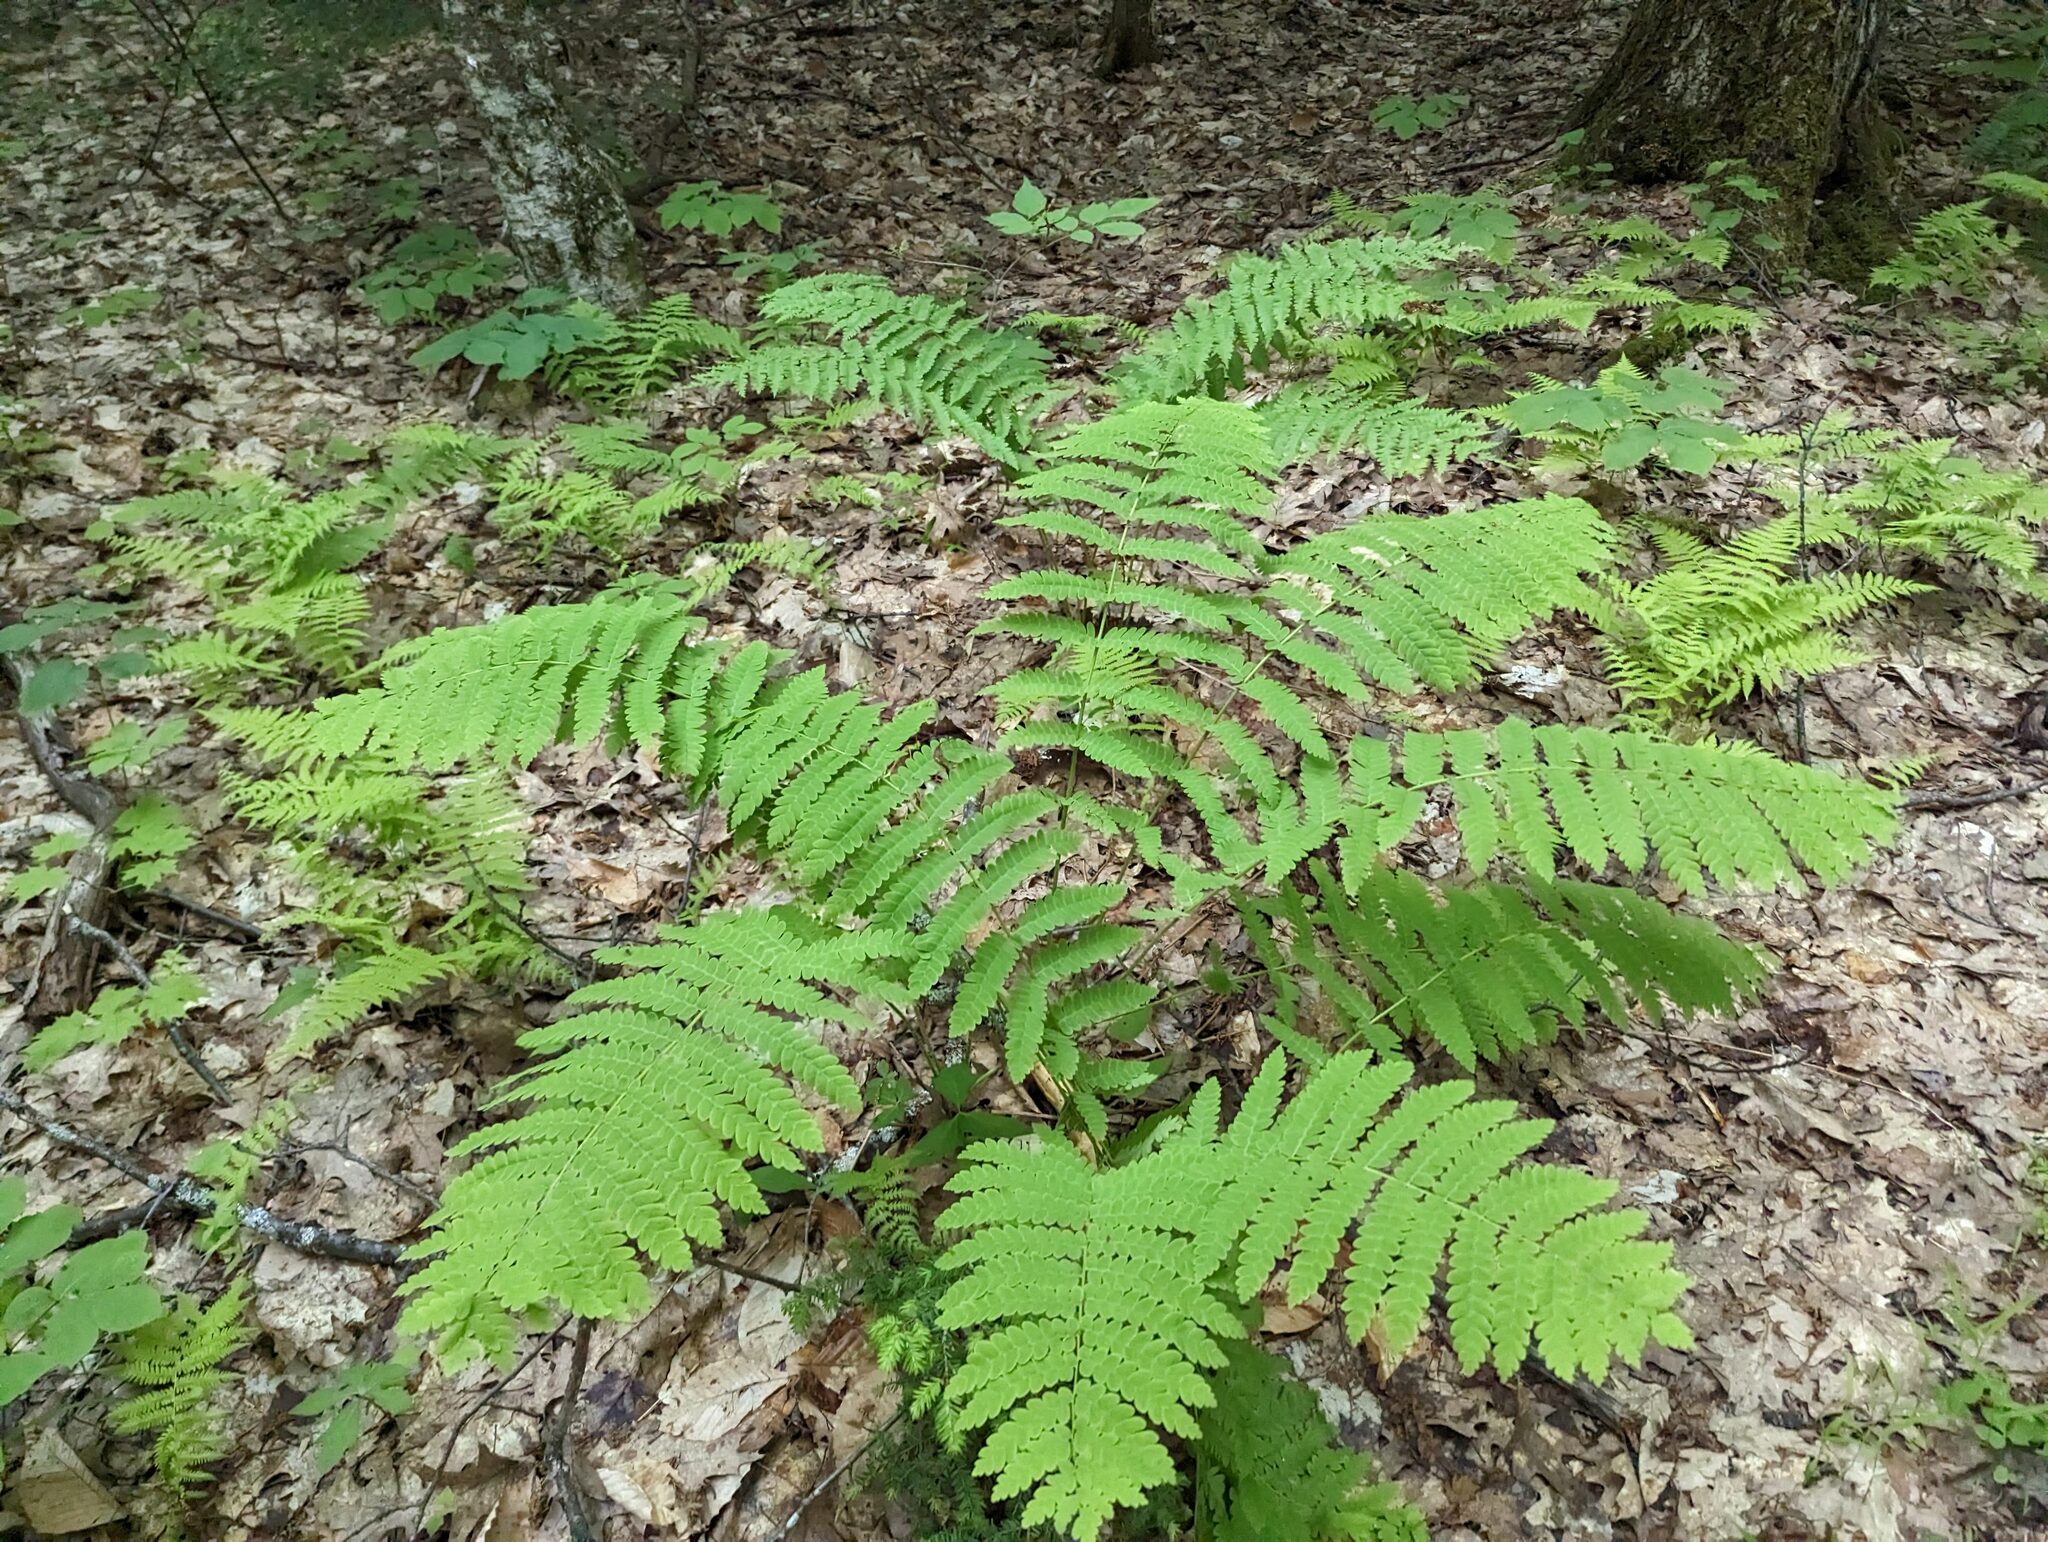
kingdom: Plantae
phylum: Tracheophyta
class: Polypodiopsida
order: Osmundales
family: Osmundaceae
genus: Claytosmunda
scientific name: Claytosmunda claytoniana
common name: Clayton's fern
